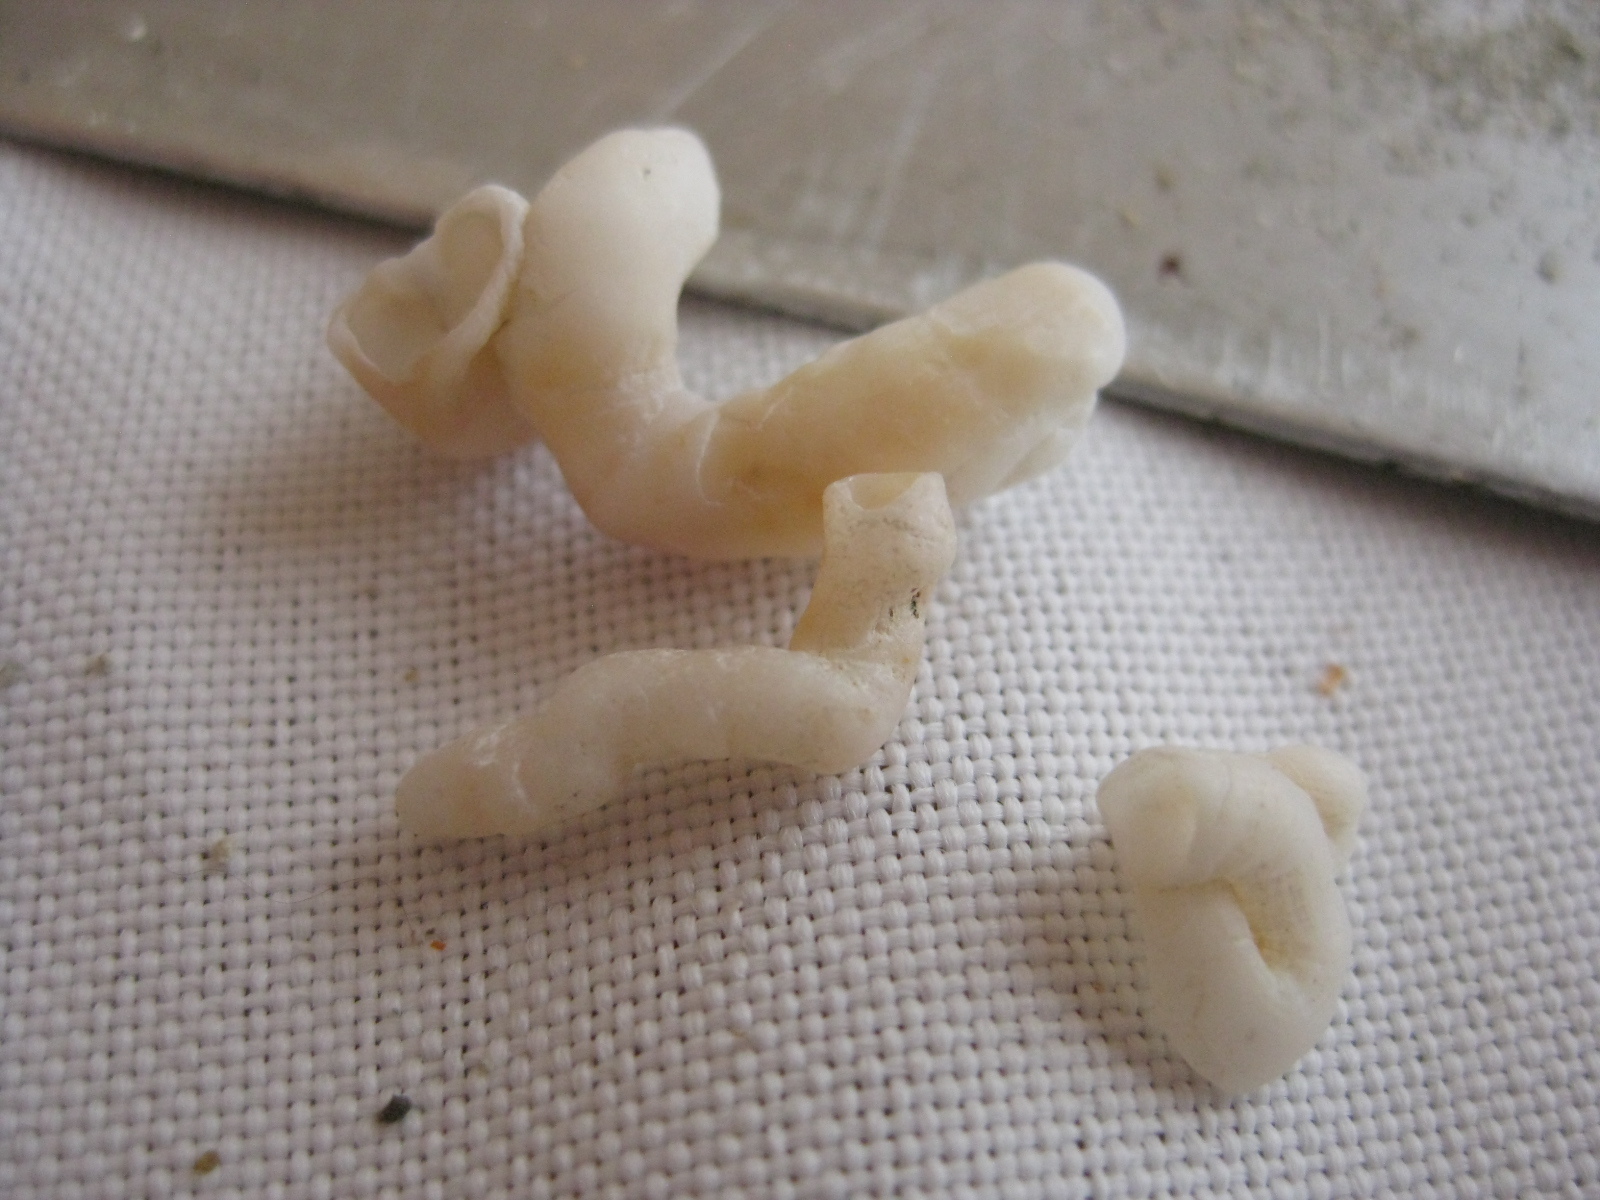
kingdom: Animalia
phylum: Mollusca
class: Gastropoda
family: Siliquariidae
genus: Stephopoma
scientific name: Stephopoma roseum
